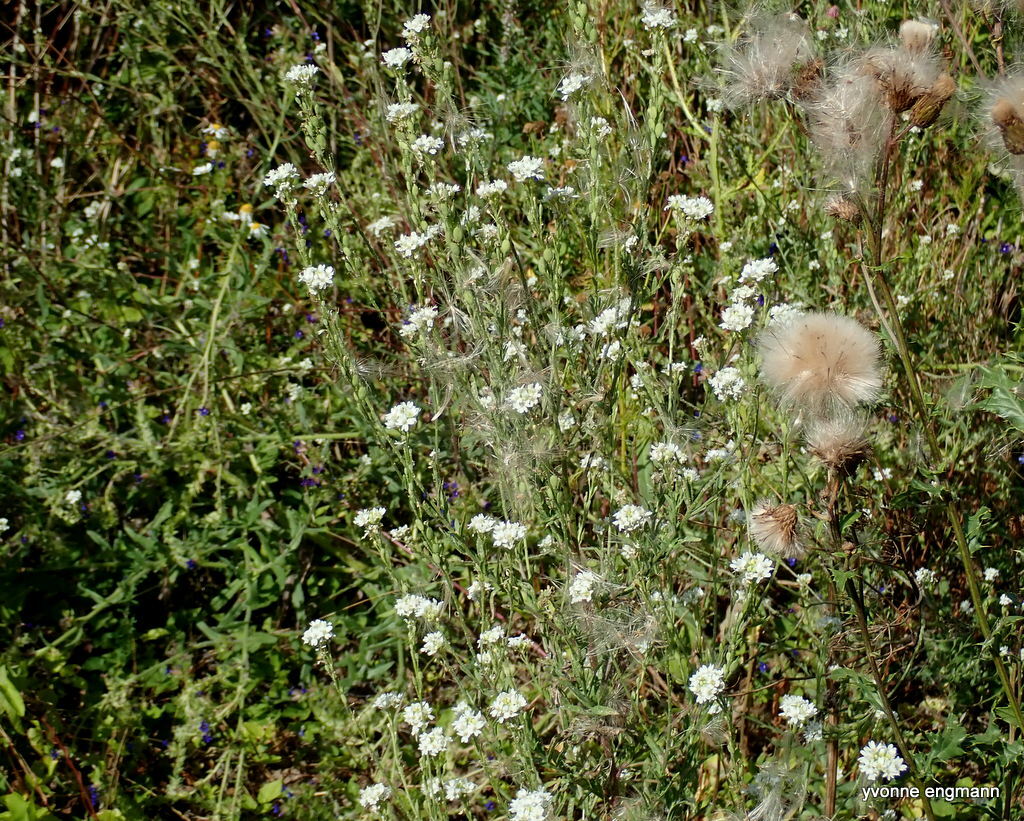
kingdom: Plantae
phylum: Tracheophyta
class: Magnoliopsida
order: Brassicales
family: Brassicaceae
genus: Berteroa
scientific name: Berteroa incana
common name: Hoary alison
